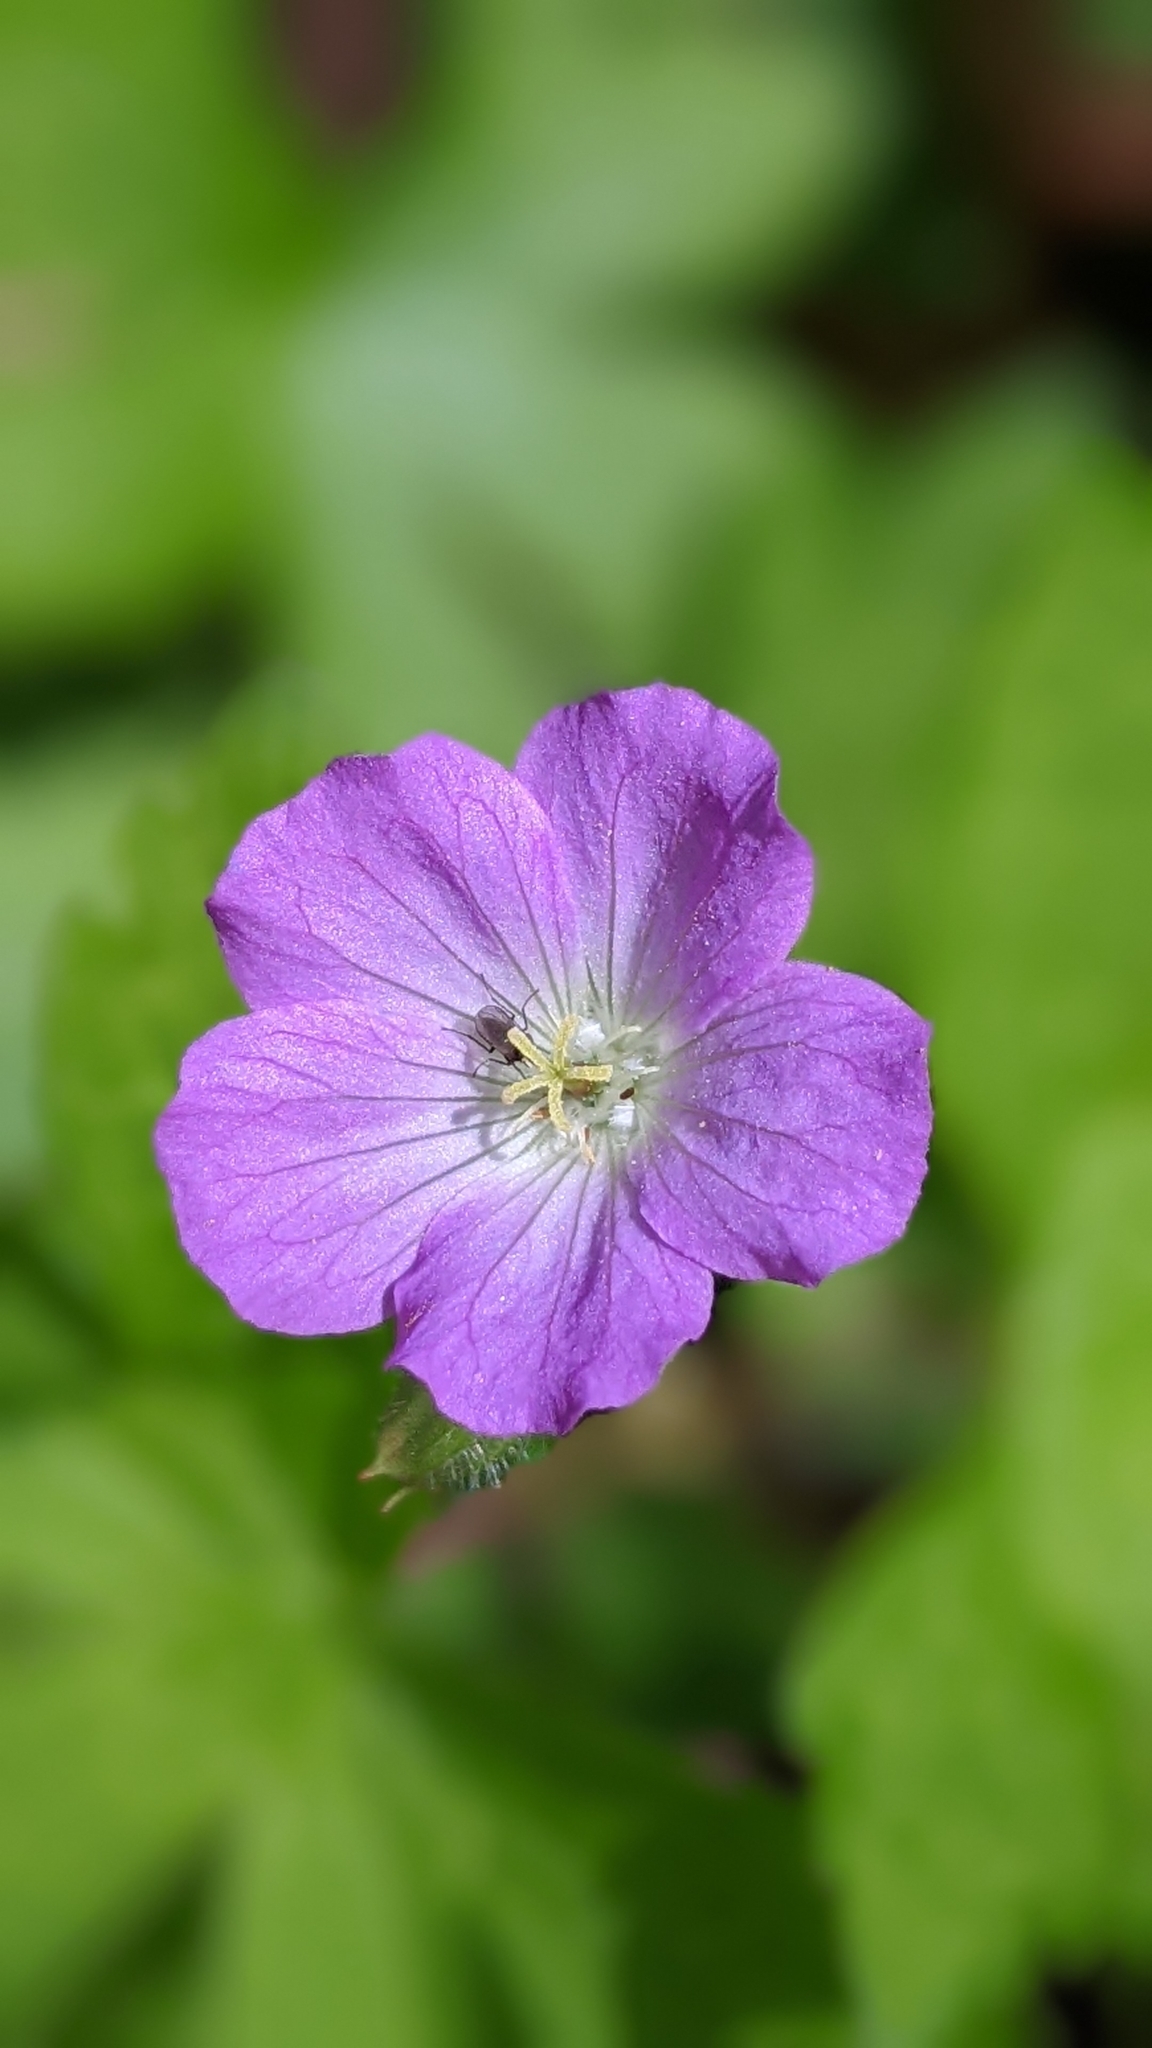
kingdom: Plantae
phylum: Tracheophyta
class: Magnoliopsida
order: Geraniales
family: Geraniaceae
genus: Geranium
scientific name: Geranium maculatum
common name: Spotted geranium
